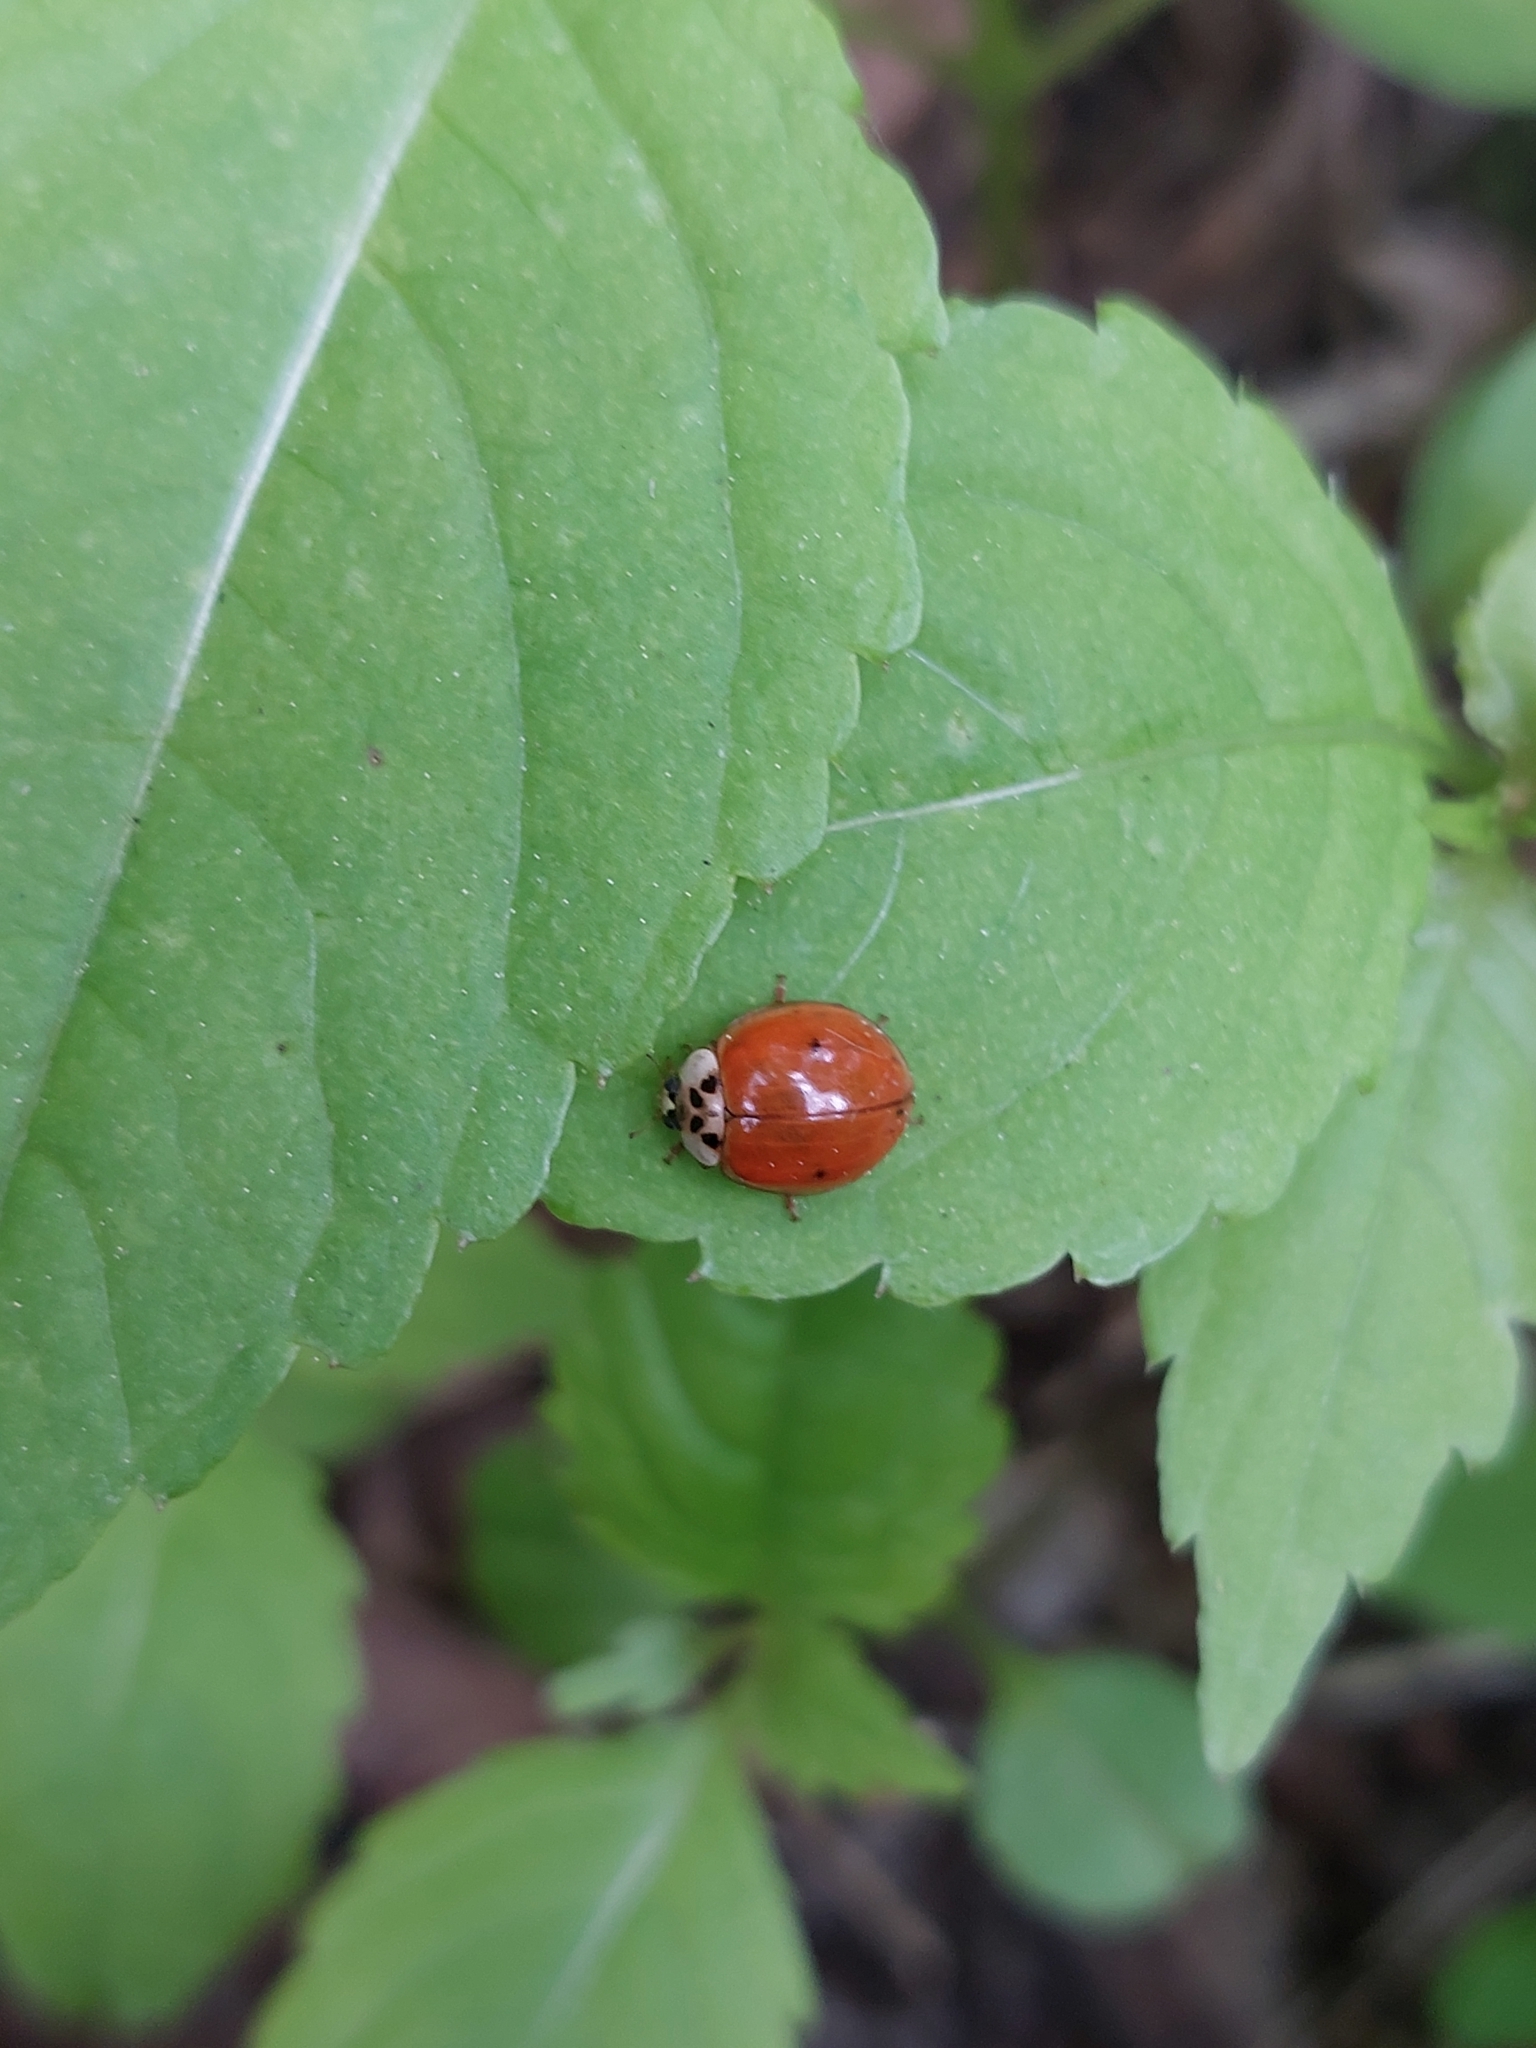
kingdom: Animalia
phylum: Arthropoda
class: Insecta
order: Coleoptera
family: Coccinellidae
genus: Harmonia
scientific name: Harmonia axyridis
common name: Harlequin ladybird
